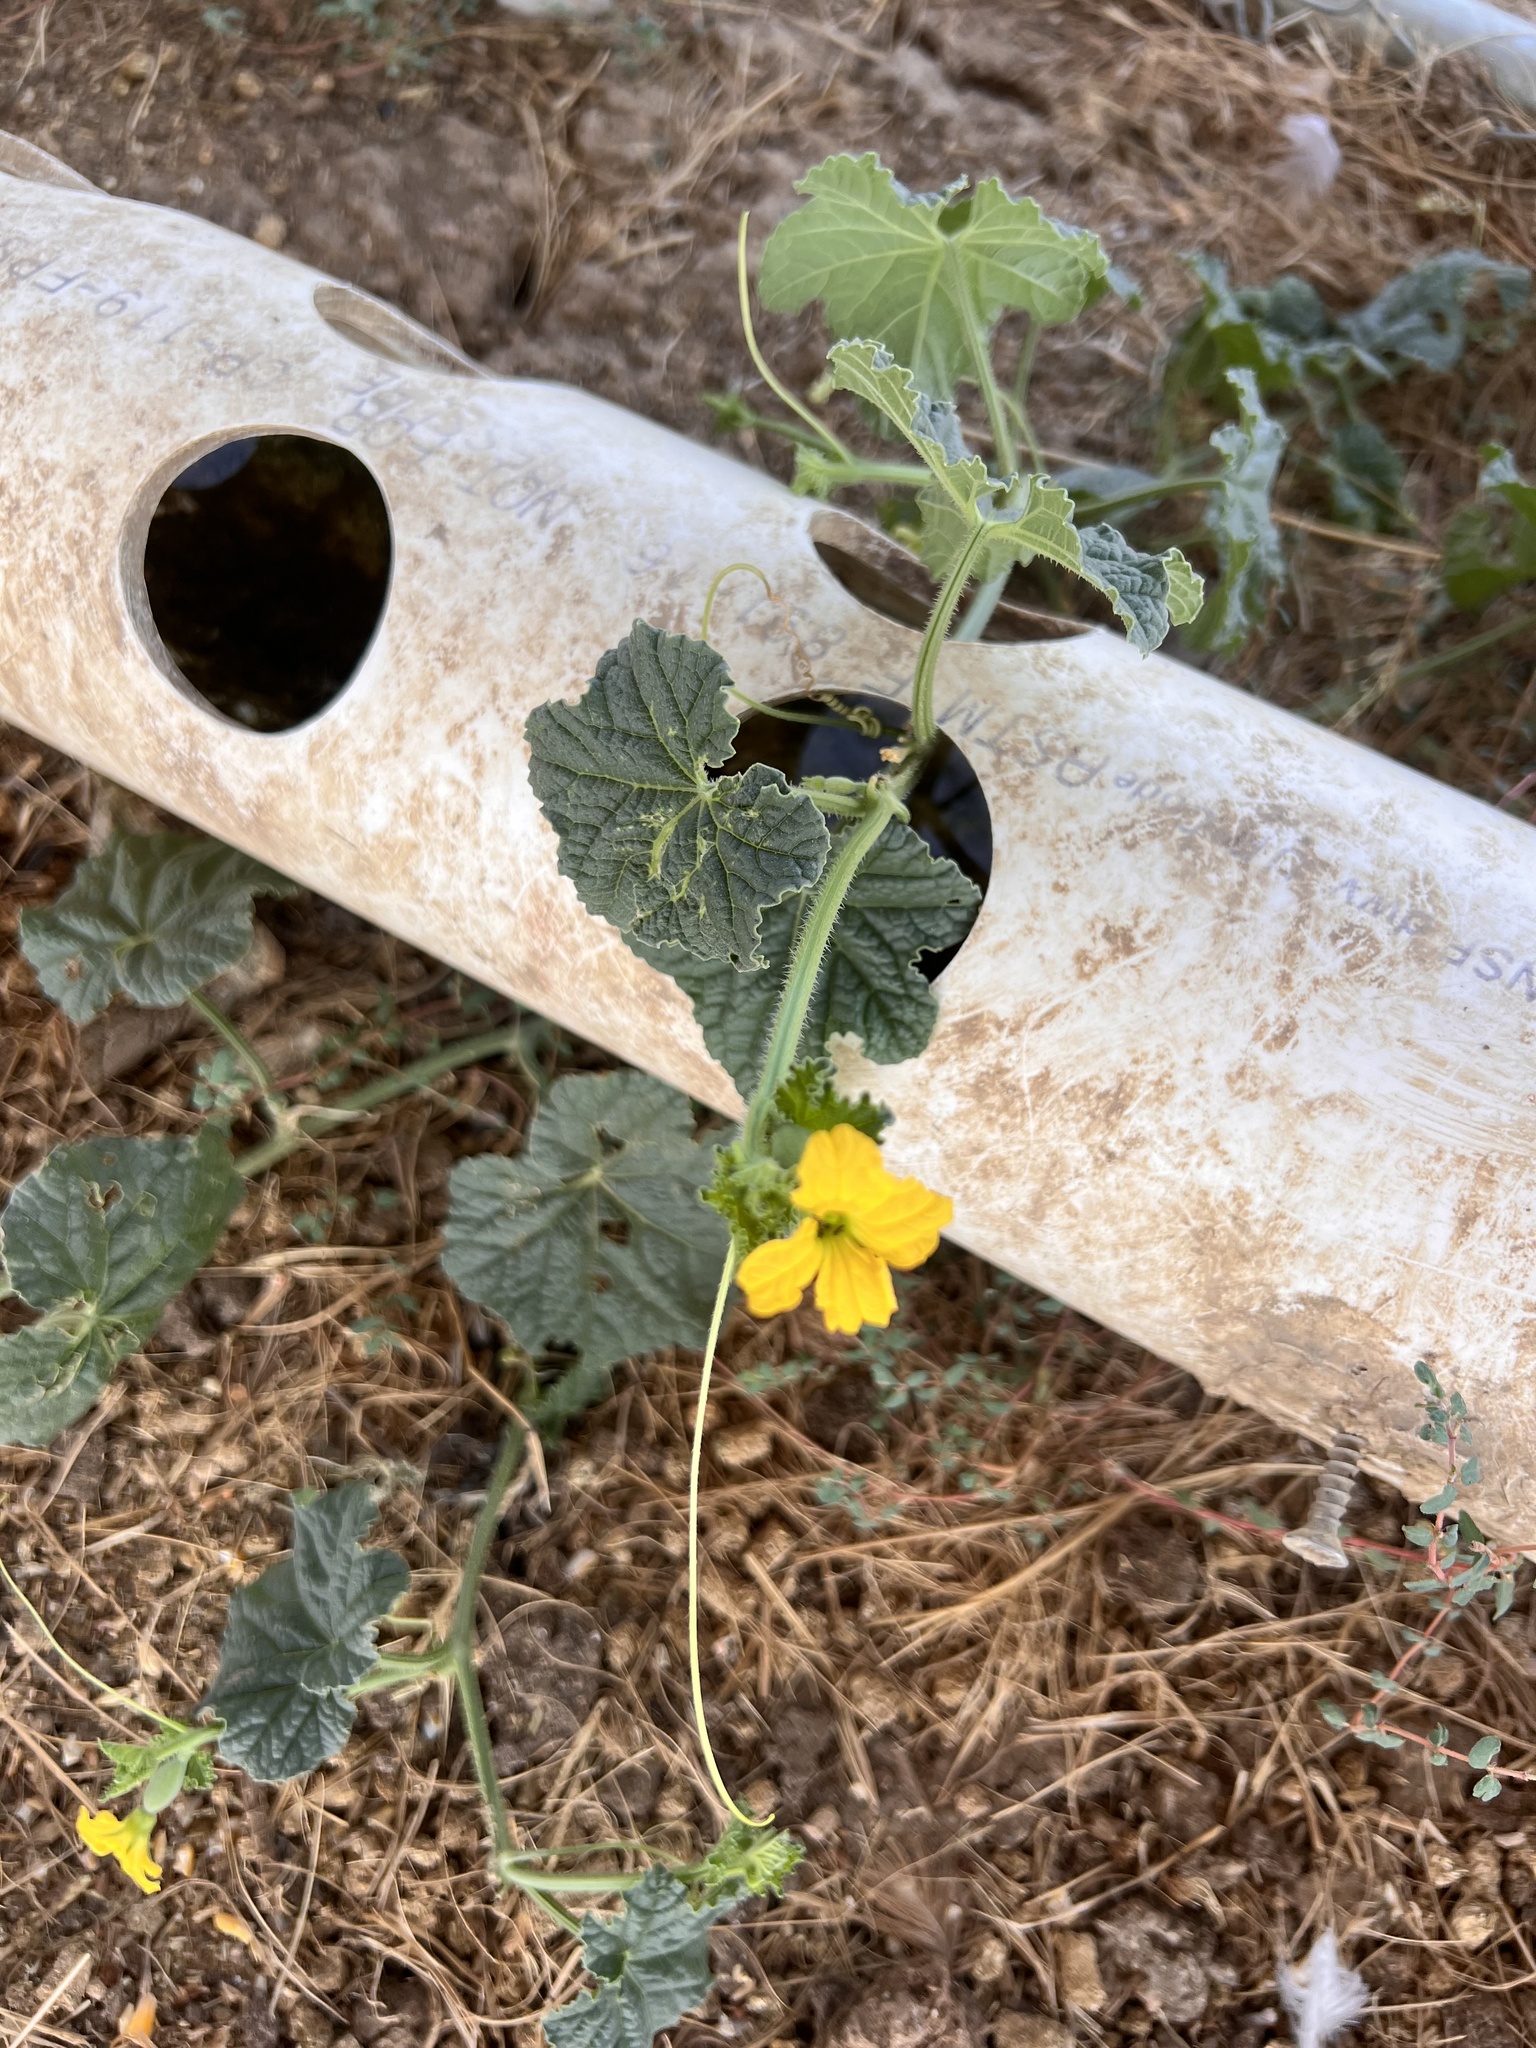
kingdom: Plantae
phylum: Tracheophyta
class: Magnoliopsida
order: Cucurbitales
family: Cucurbitaceae
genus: Cucumis
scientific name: Cucumis melo
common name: Melon
